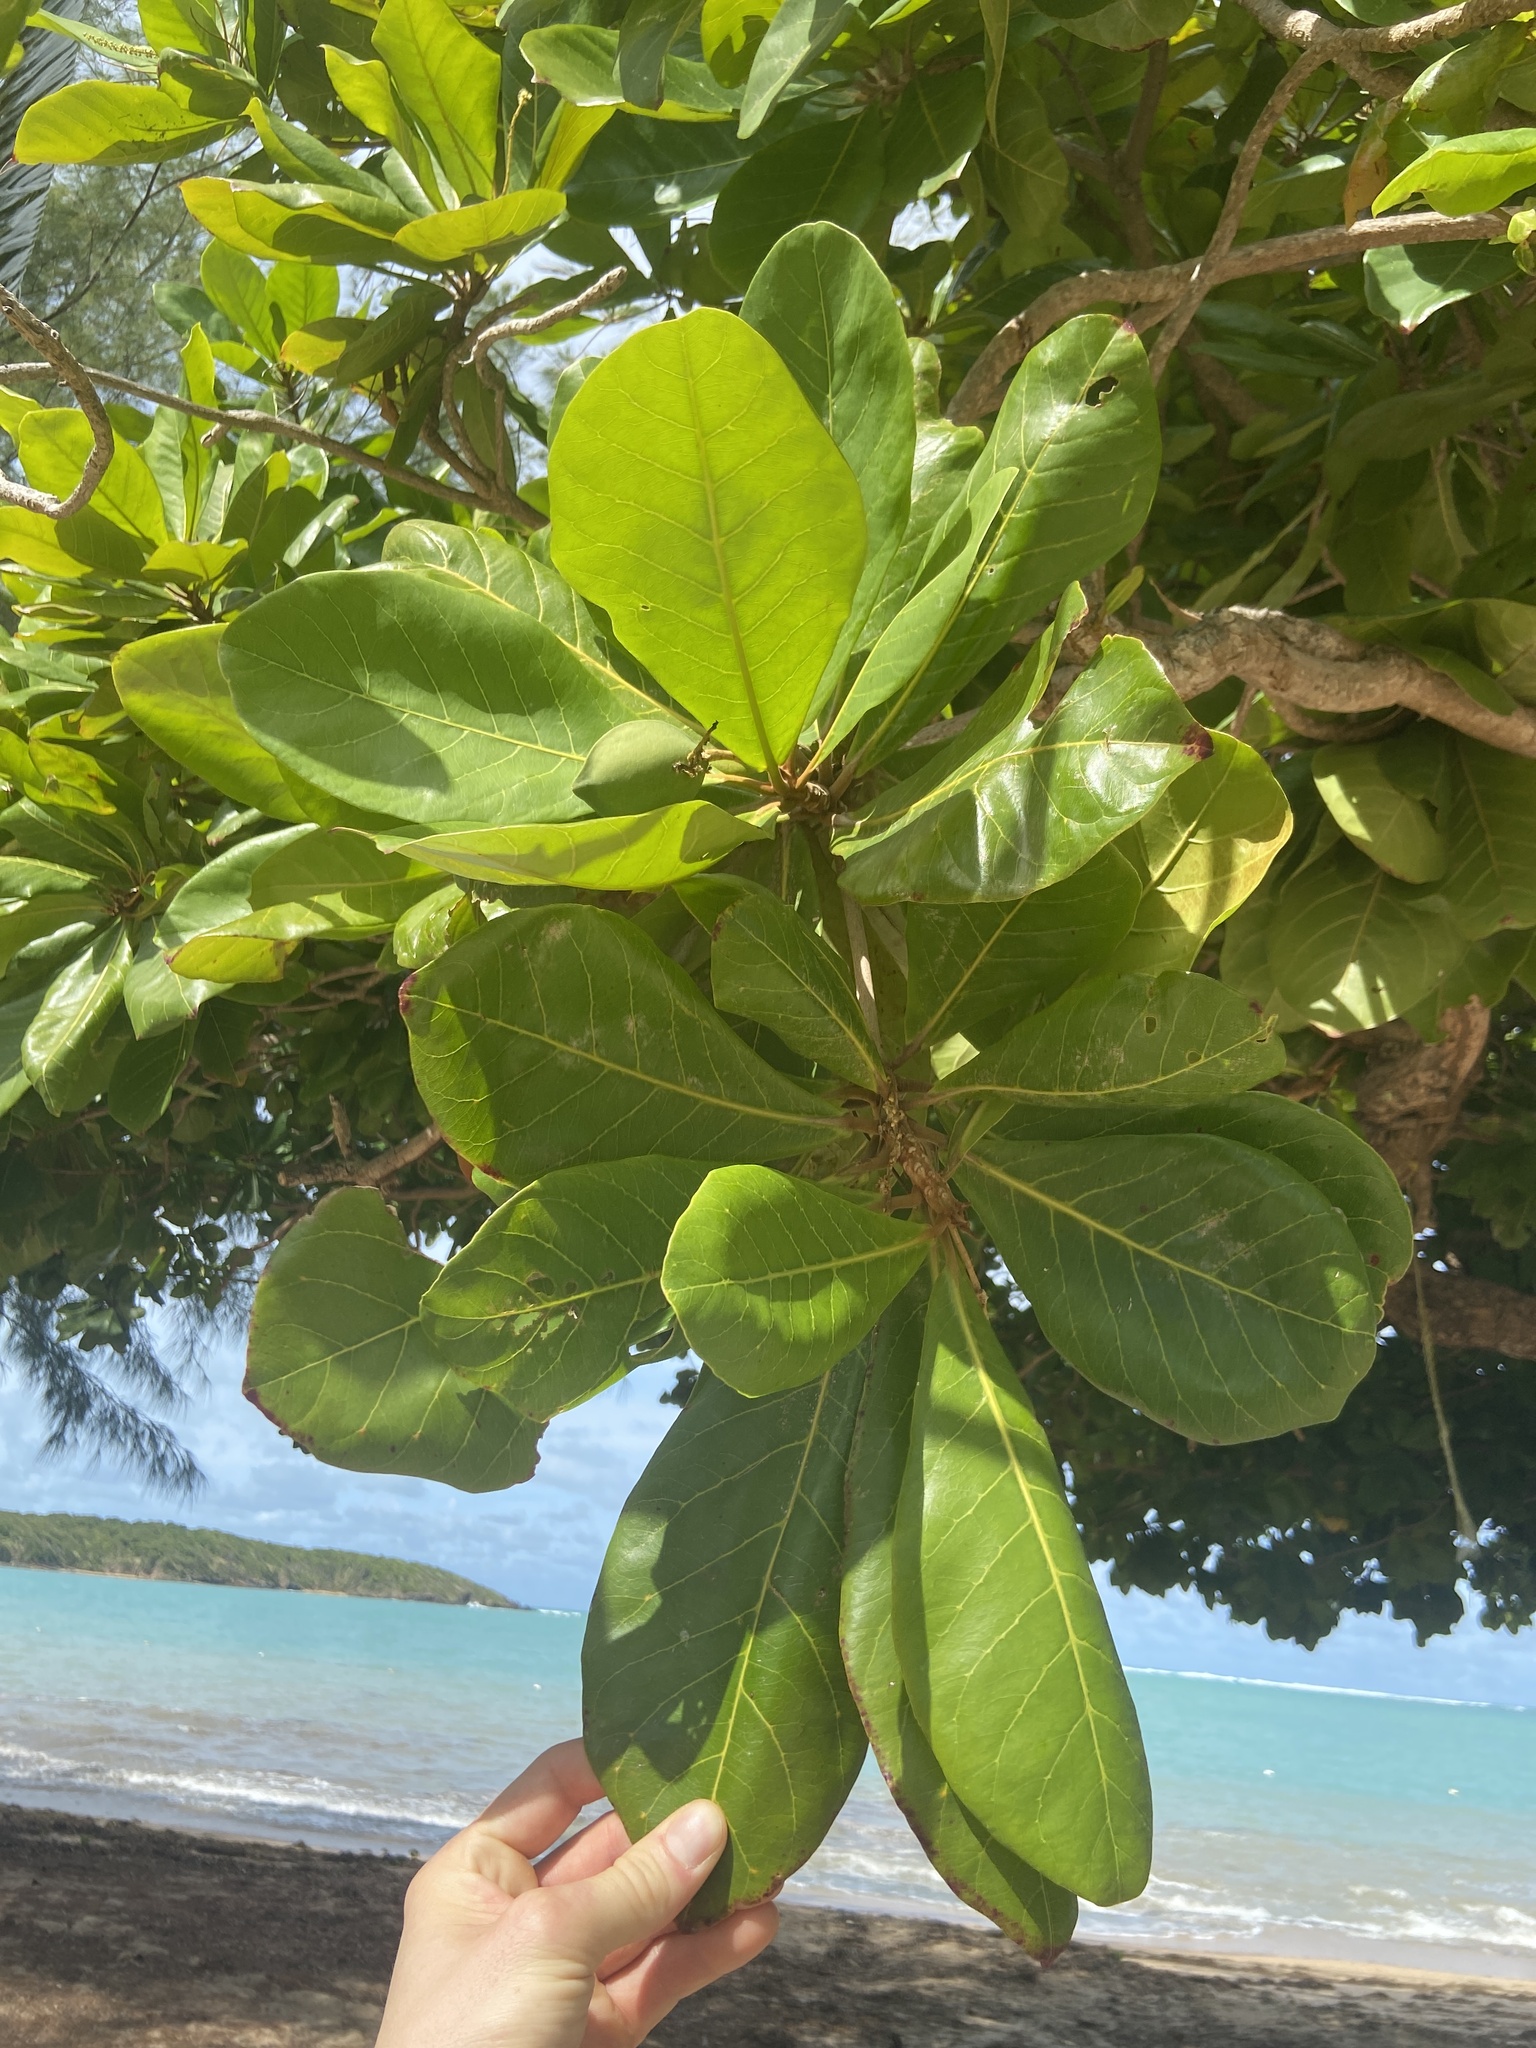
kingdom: Plantae
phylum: Tracheophyta
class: Magnoliopsida
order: Myrtales
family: Combretaceae
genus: Terminalia
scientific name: Terminalia catappa
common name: Tropical almond
